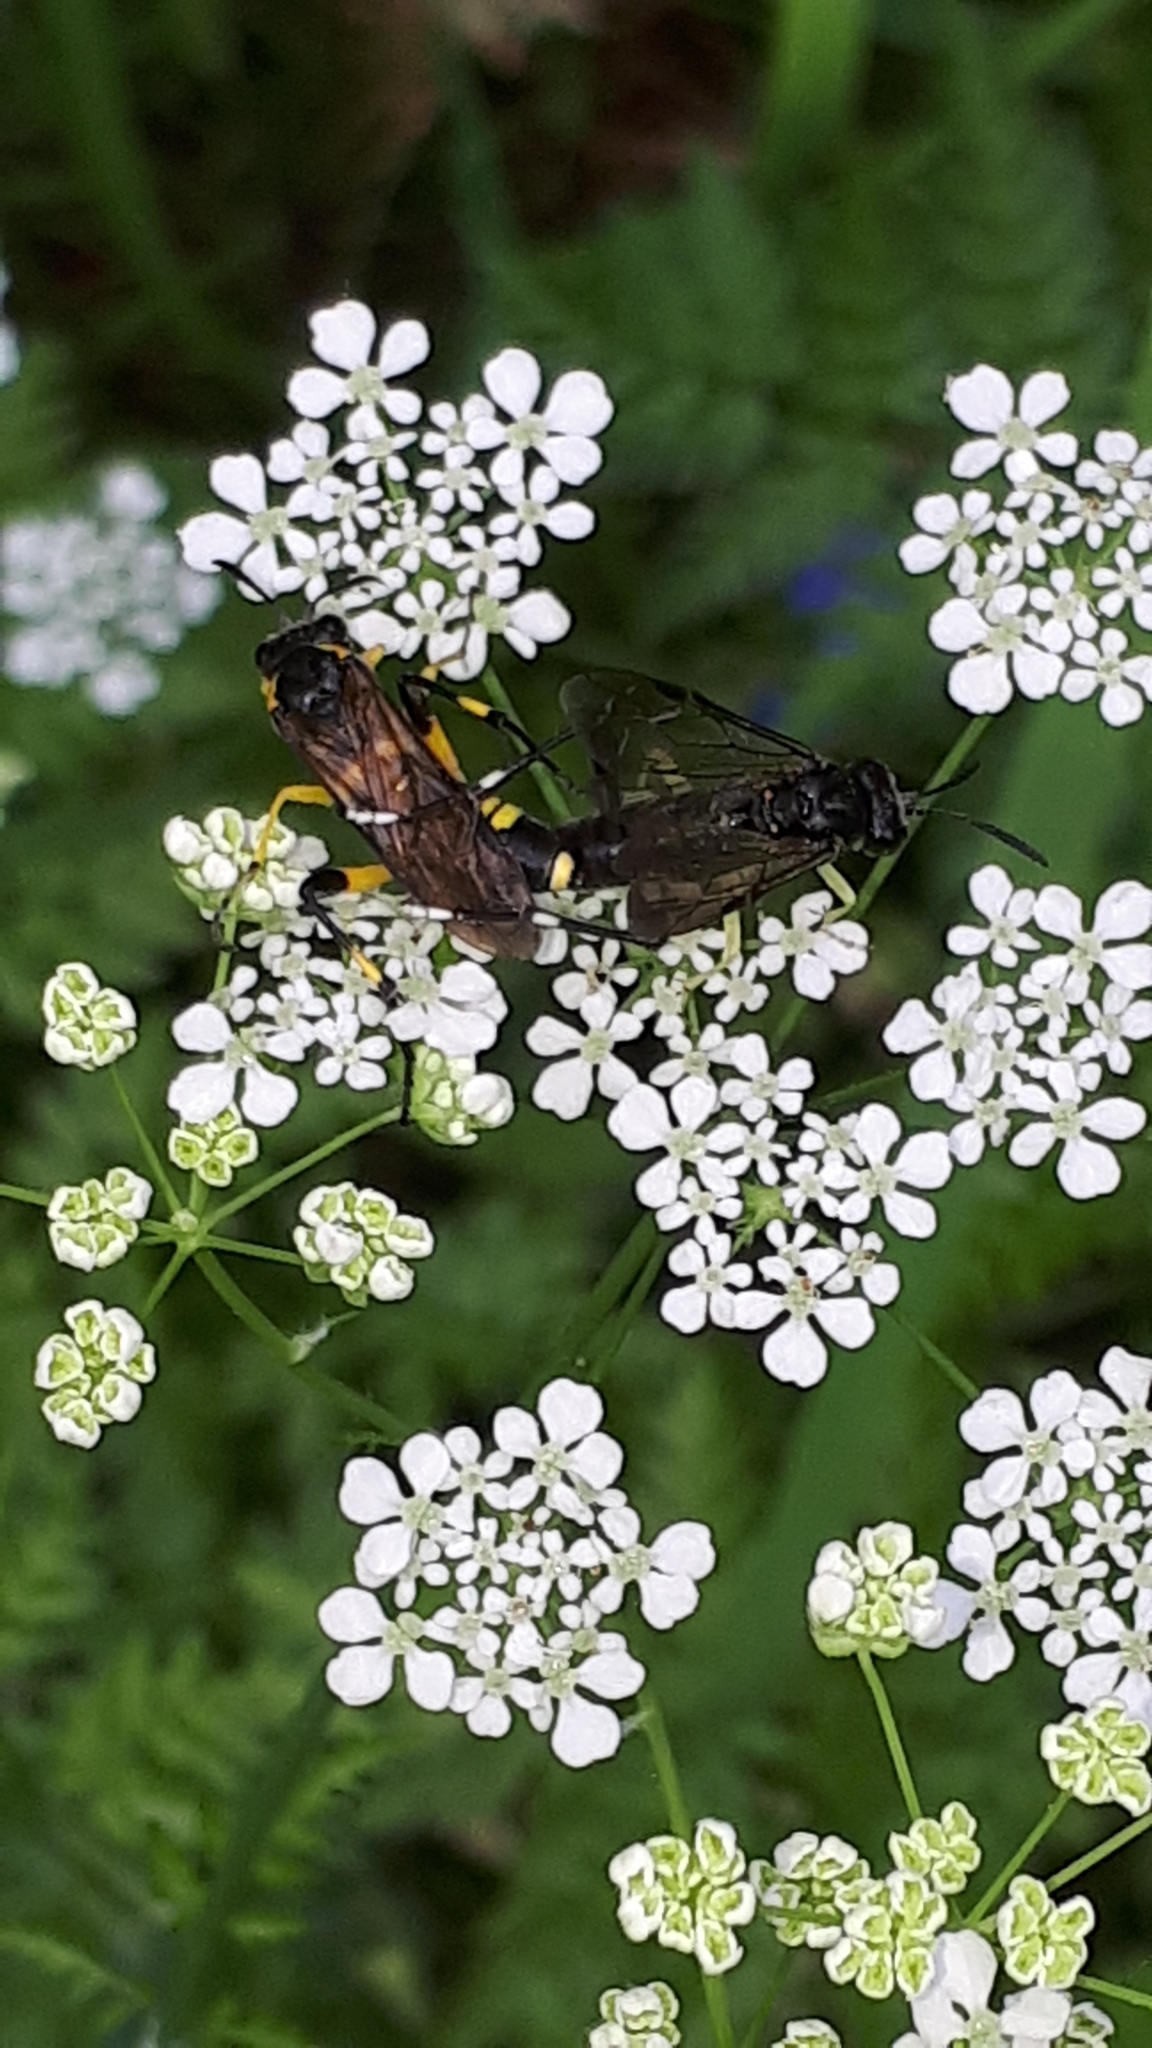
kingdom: Animalia
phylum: Arthropoda
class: Insecta
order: Hymenoptera
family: Tenthredinidae
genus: Macrophya
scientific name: Macrophya montana
